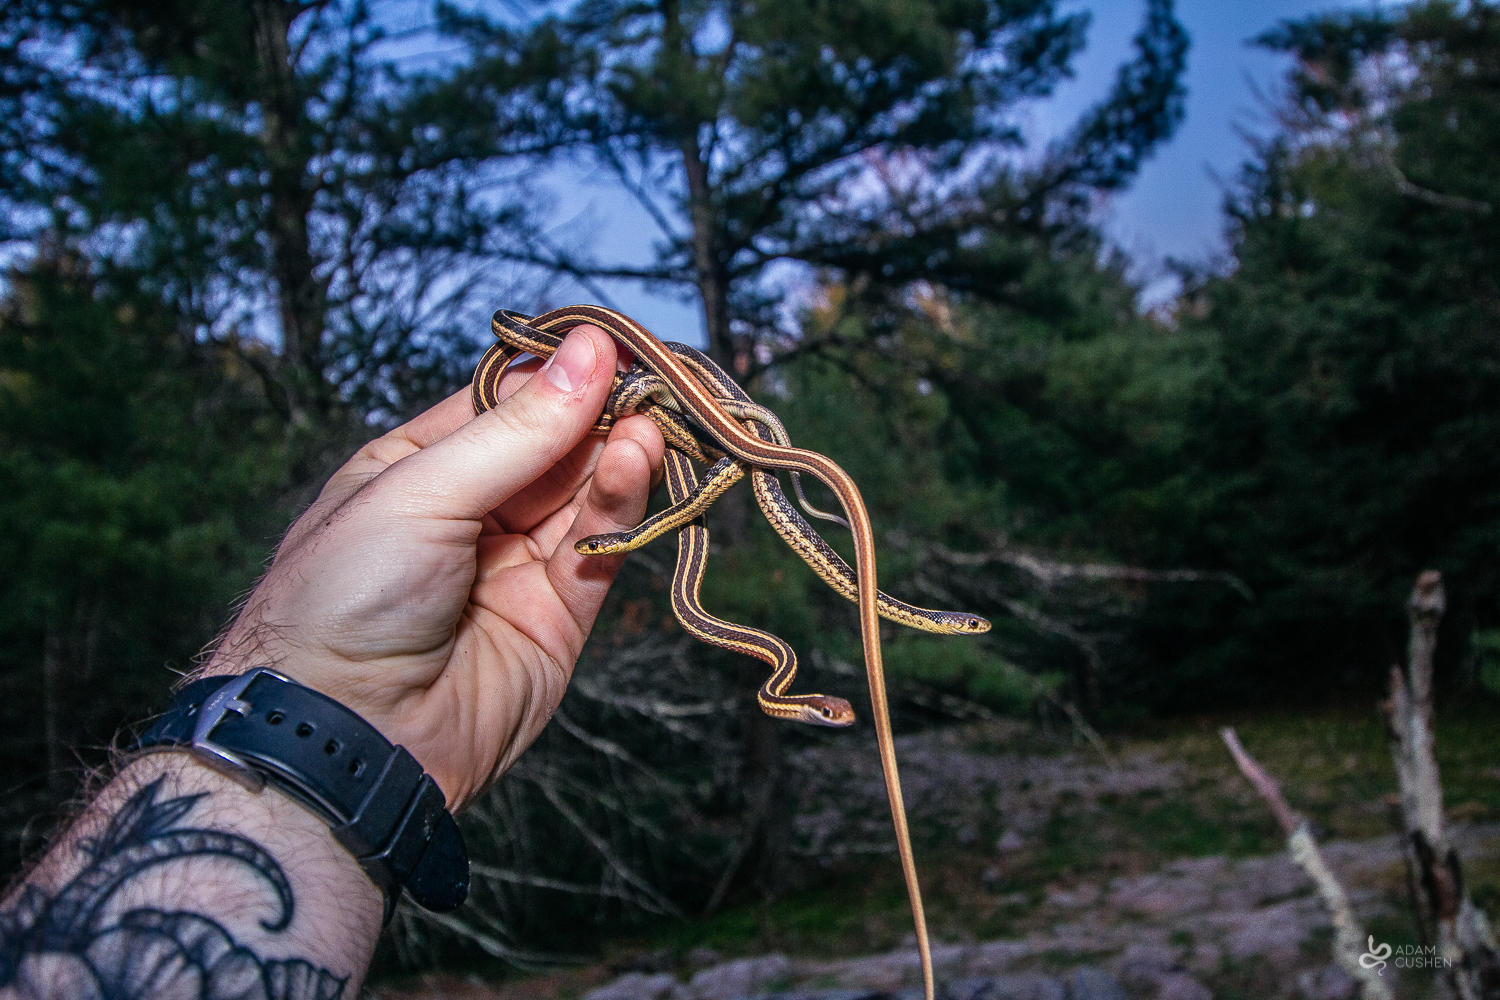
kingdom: Animalia
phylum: Chordata
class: Squamata
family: Colubridae
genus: Thamnophis
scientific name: Thamnophis sirtalis
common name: Common garter snake
